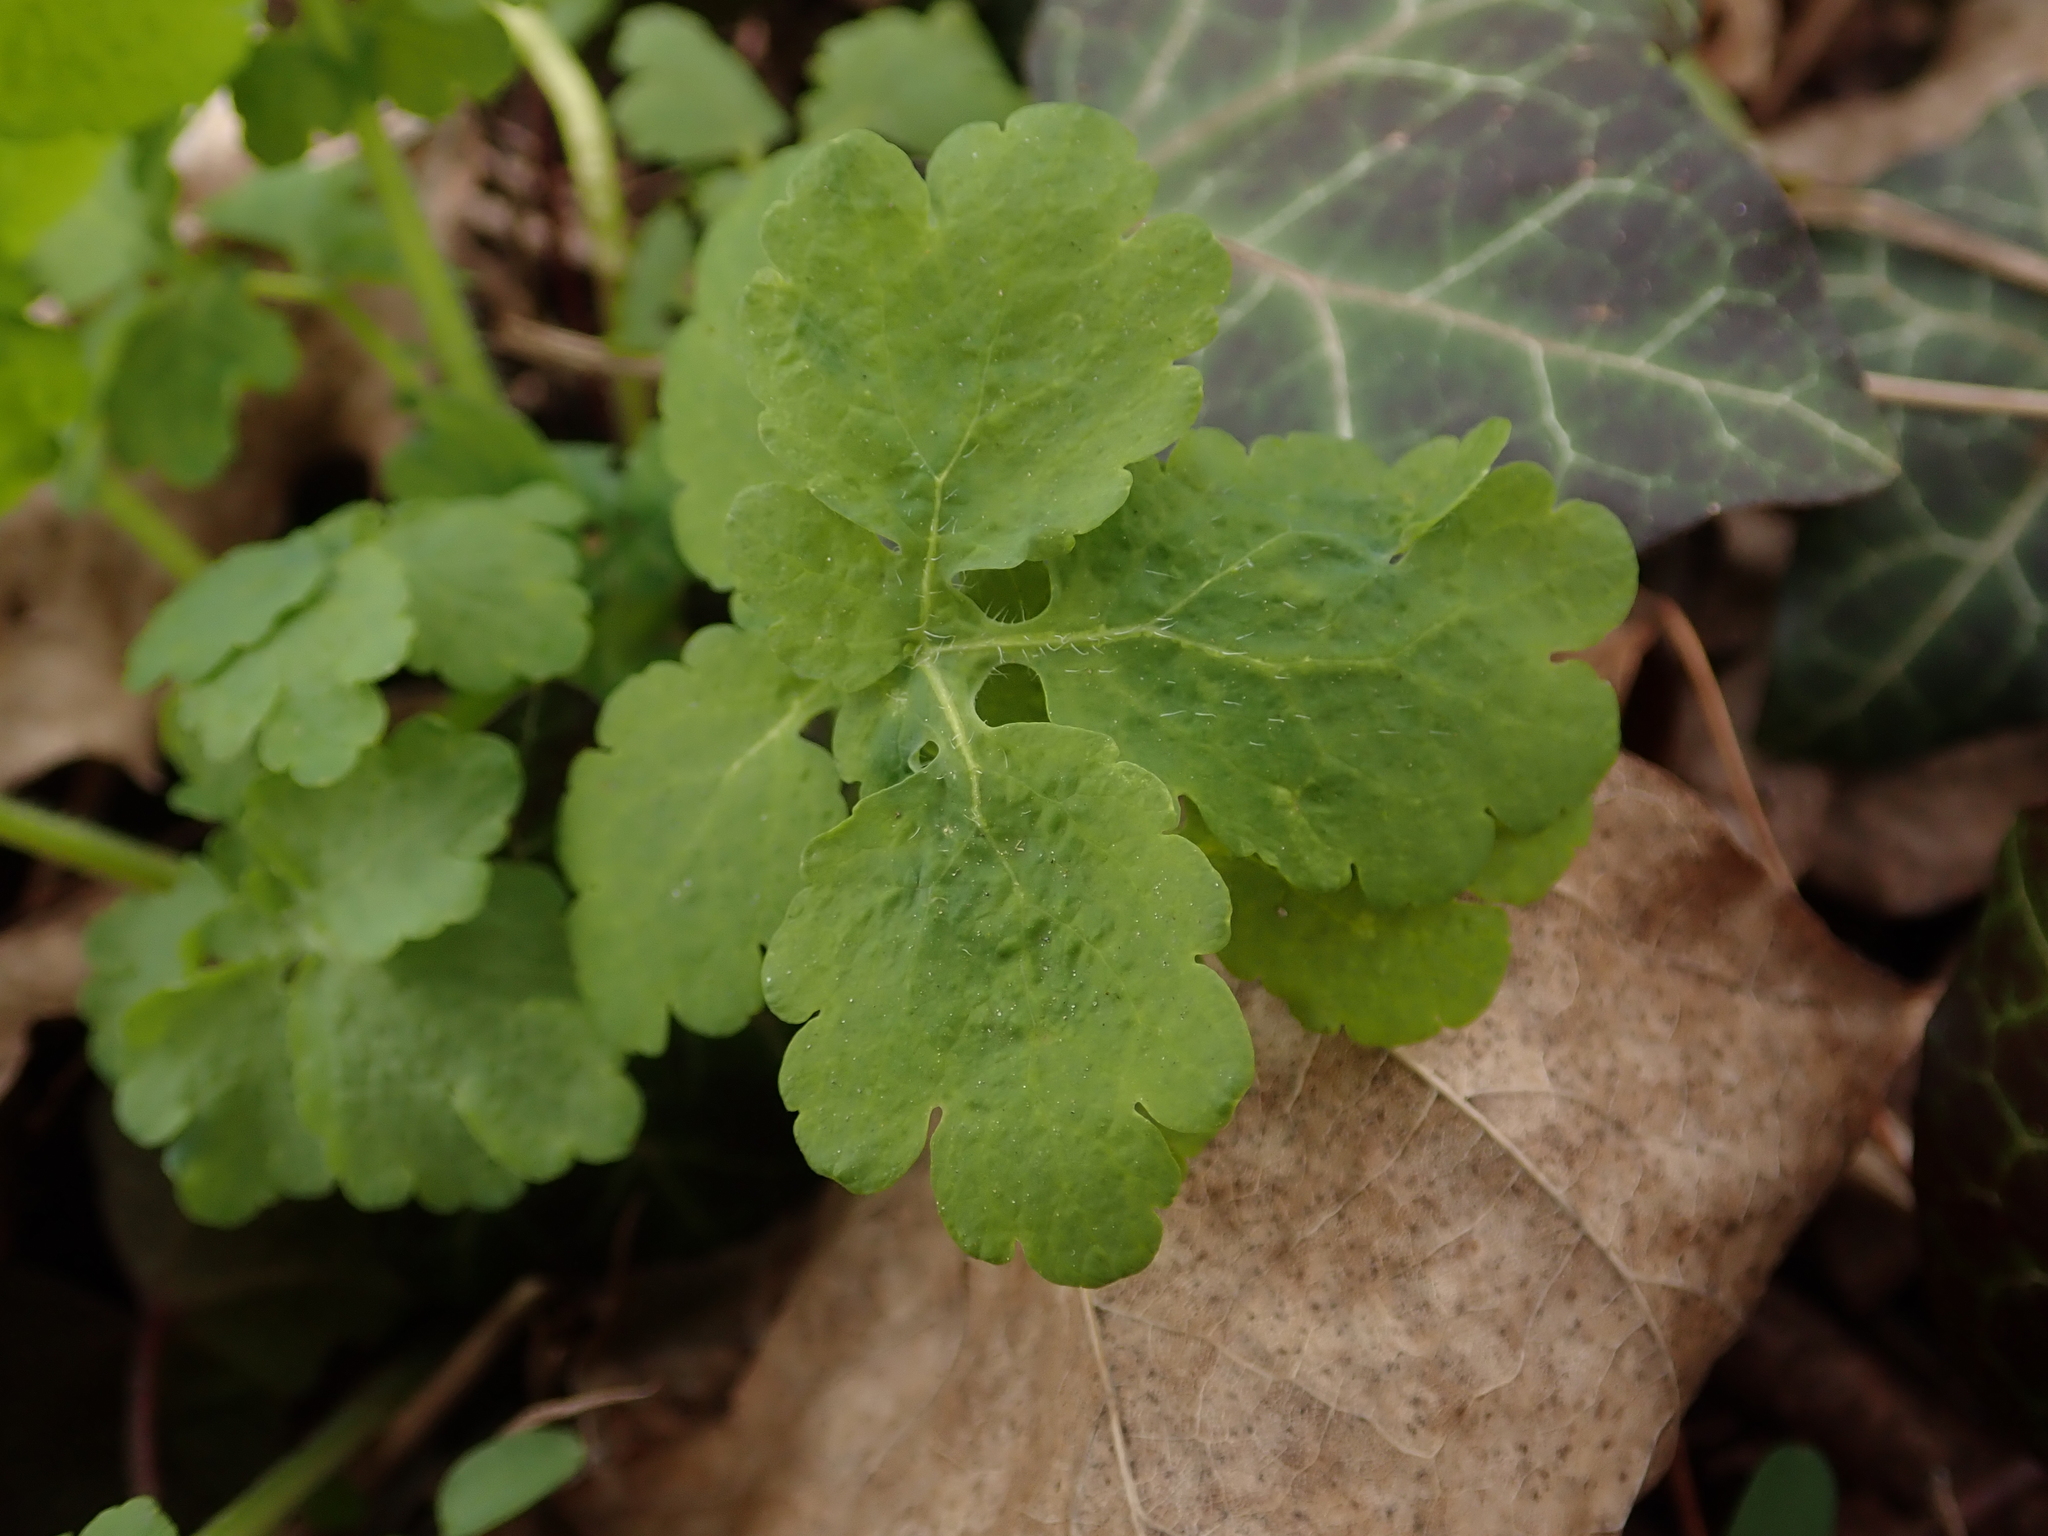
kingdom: Plantae
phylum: Tracheophyta
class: Magnoliopsida
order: Ranunculales
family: Papaveraceae
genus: Chelidonium
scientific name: Chelidonium majus
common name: Greater celandine
